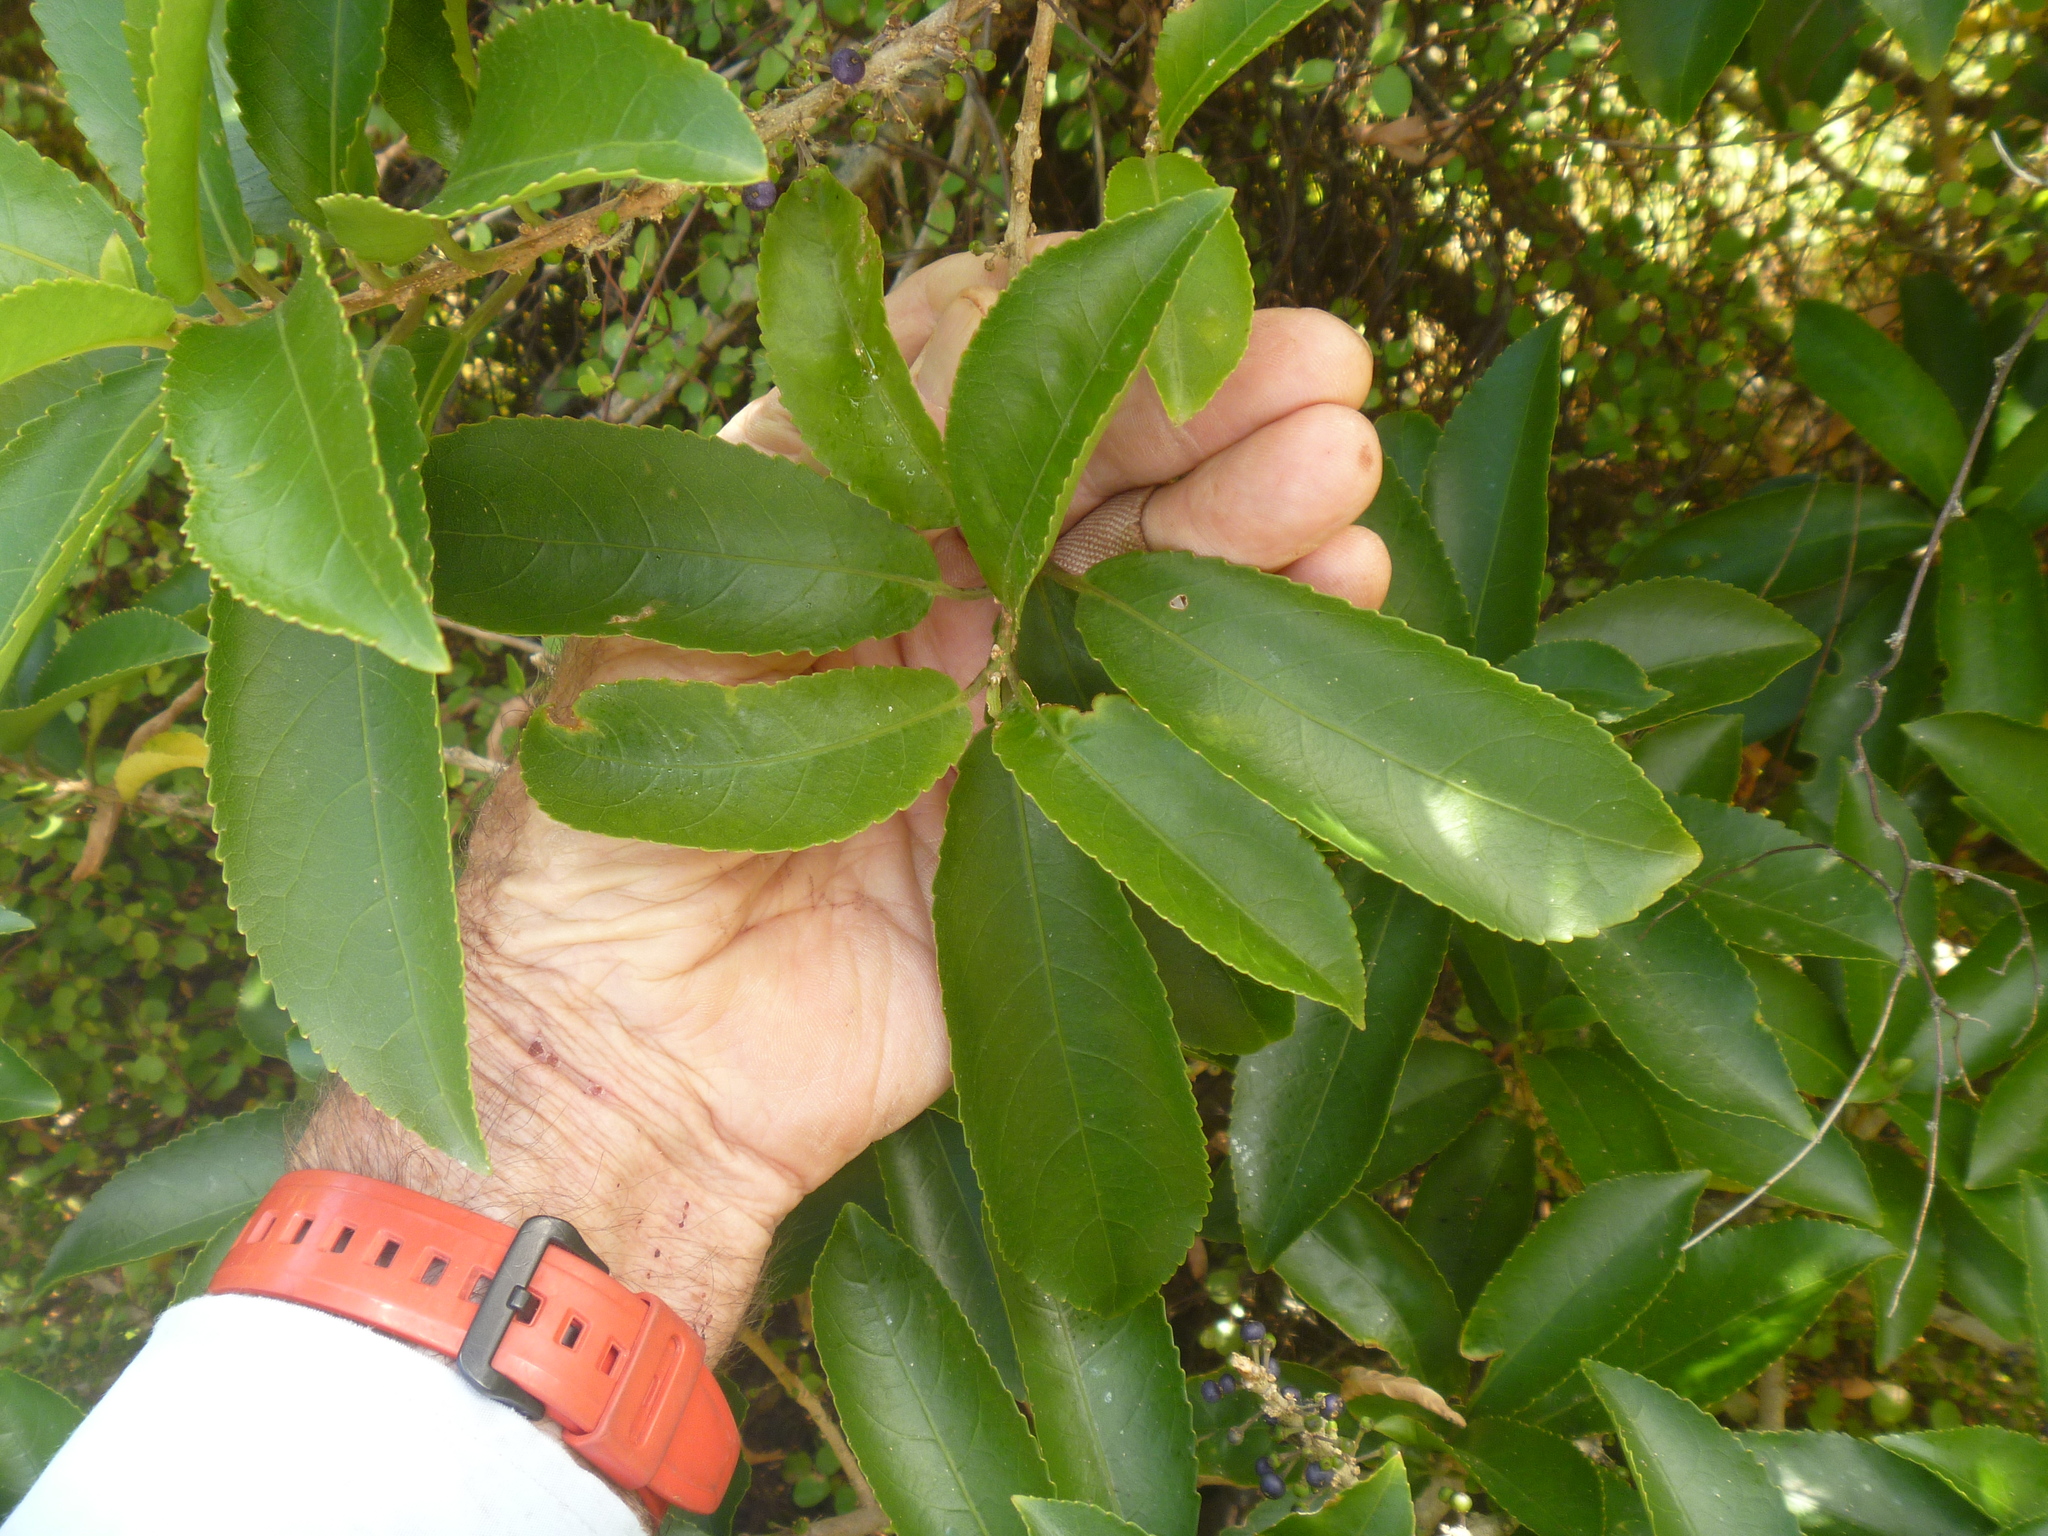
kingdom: Plantae
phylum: Tracheophyta
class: Magnoliopsida
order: Malpighiales
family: Violaceae
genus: Melicytus
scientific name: Melicytus ramiflorus
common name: Mahoe
